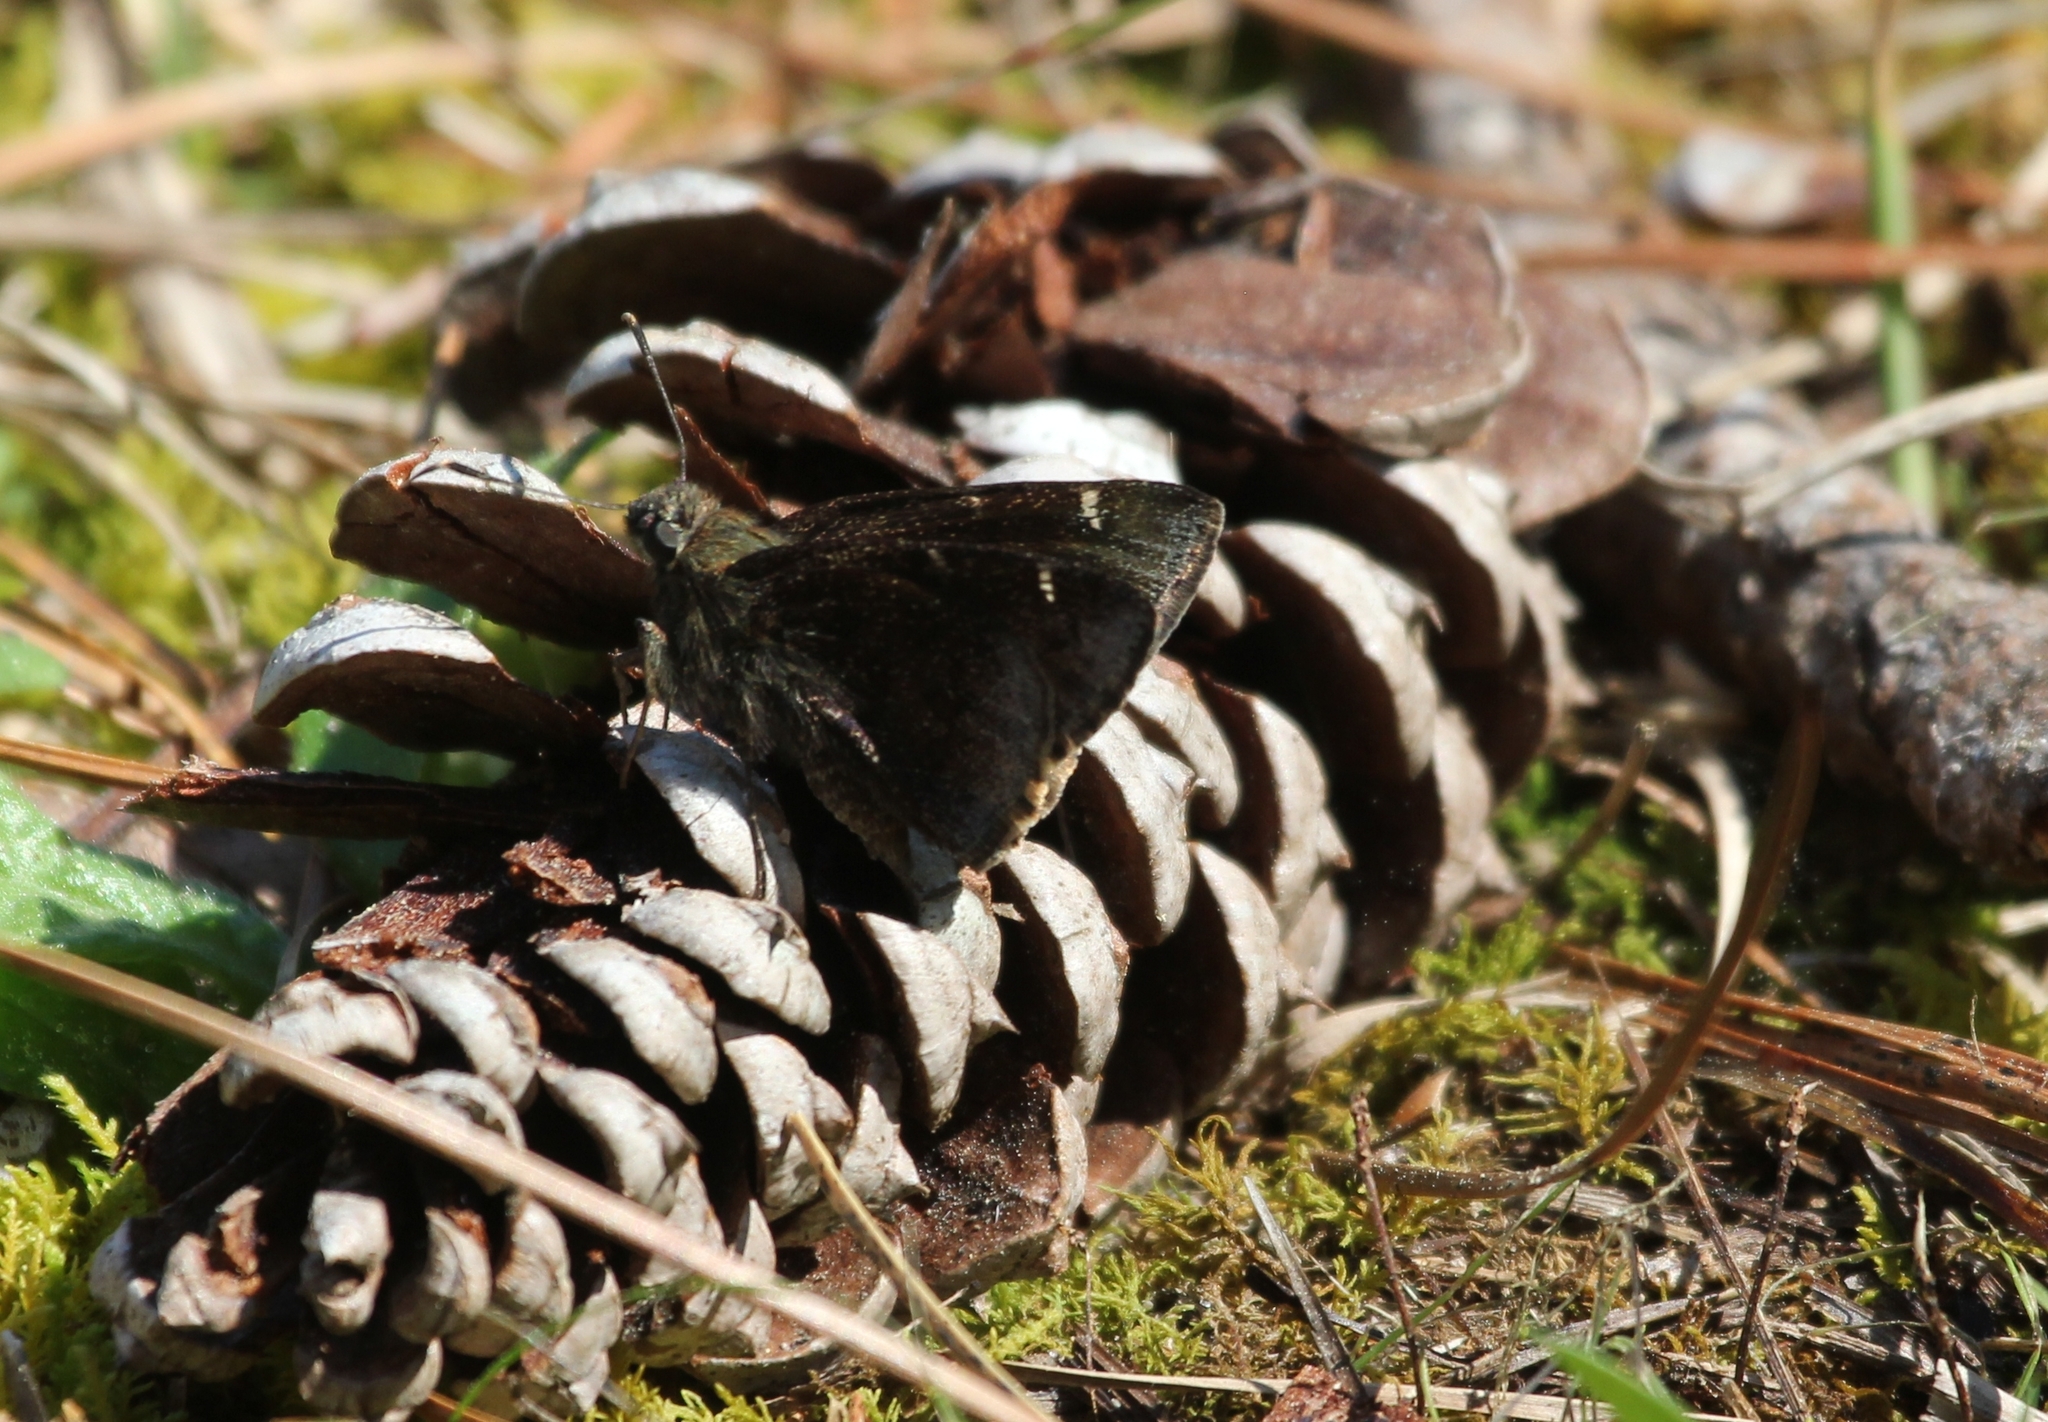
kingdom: Animalia
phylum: Arthropoda
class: Insecta
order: Lepidoptera
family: Hesperiidae
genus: Thorybes
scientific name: Thorybes pylades
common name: Northern cloudywing
